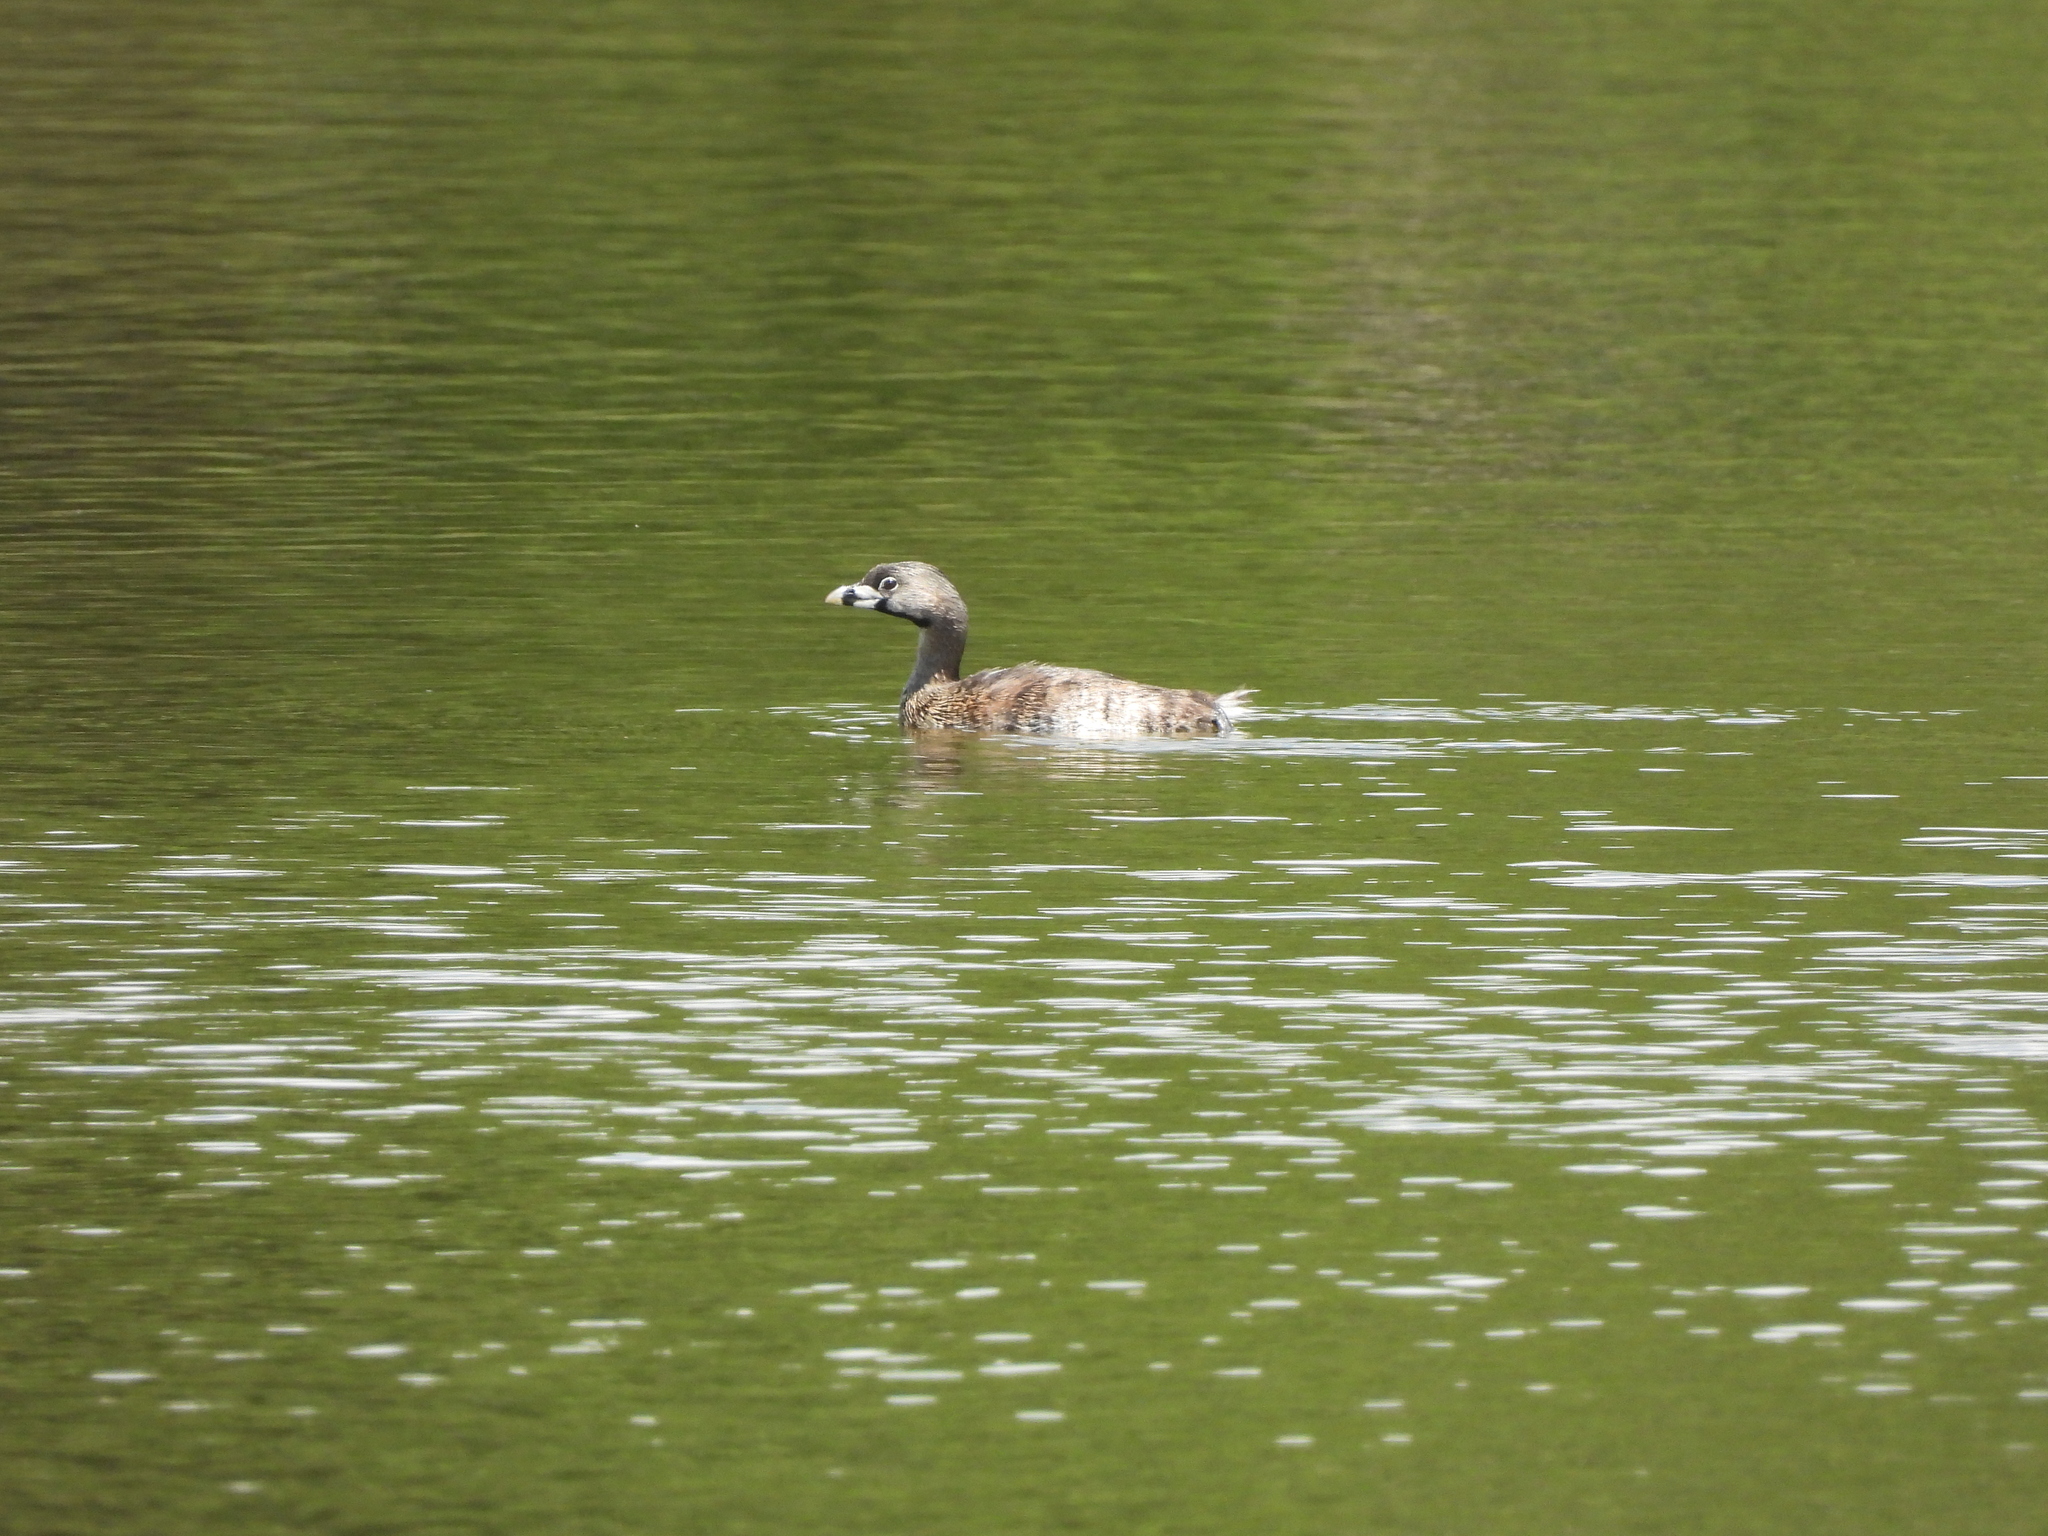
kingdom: Animalia
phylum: Chordata
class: Aves
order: Podicipediformes
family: Podicipedidae
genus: Podilymbus
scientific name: Podilymbus podiceps
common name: Pied-billed grebe
